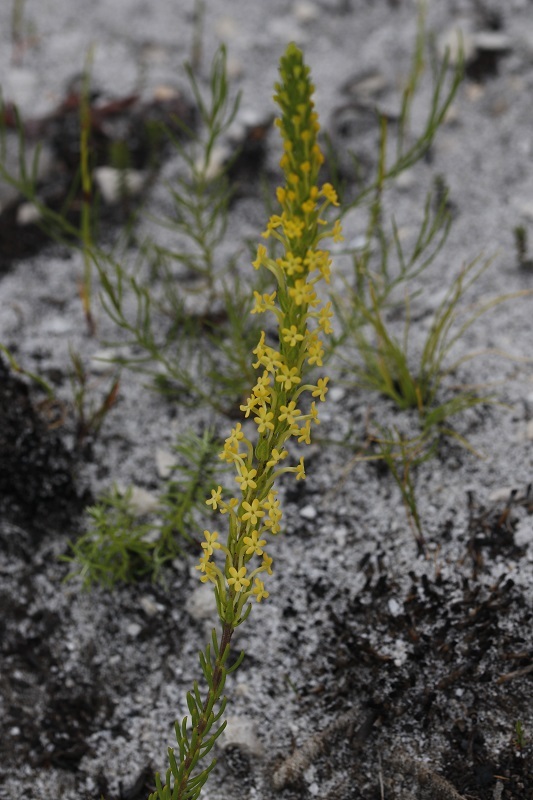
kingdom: Plantae
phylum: Tracheophyta
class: Magnoliopsida
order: Lamiales
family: Scrophulariaceae
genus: Microdon
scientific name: Microdon dubius
